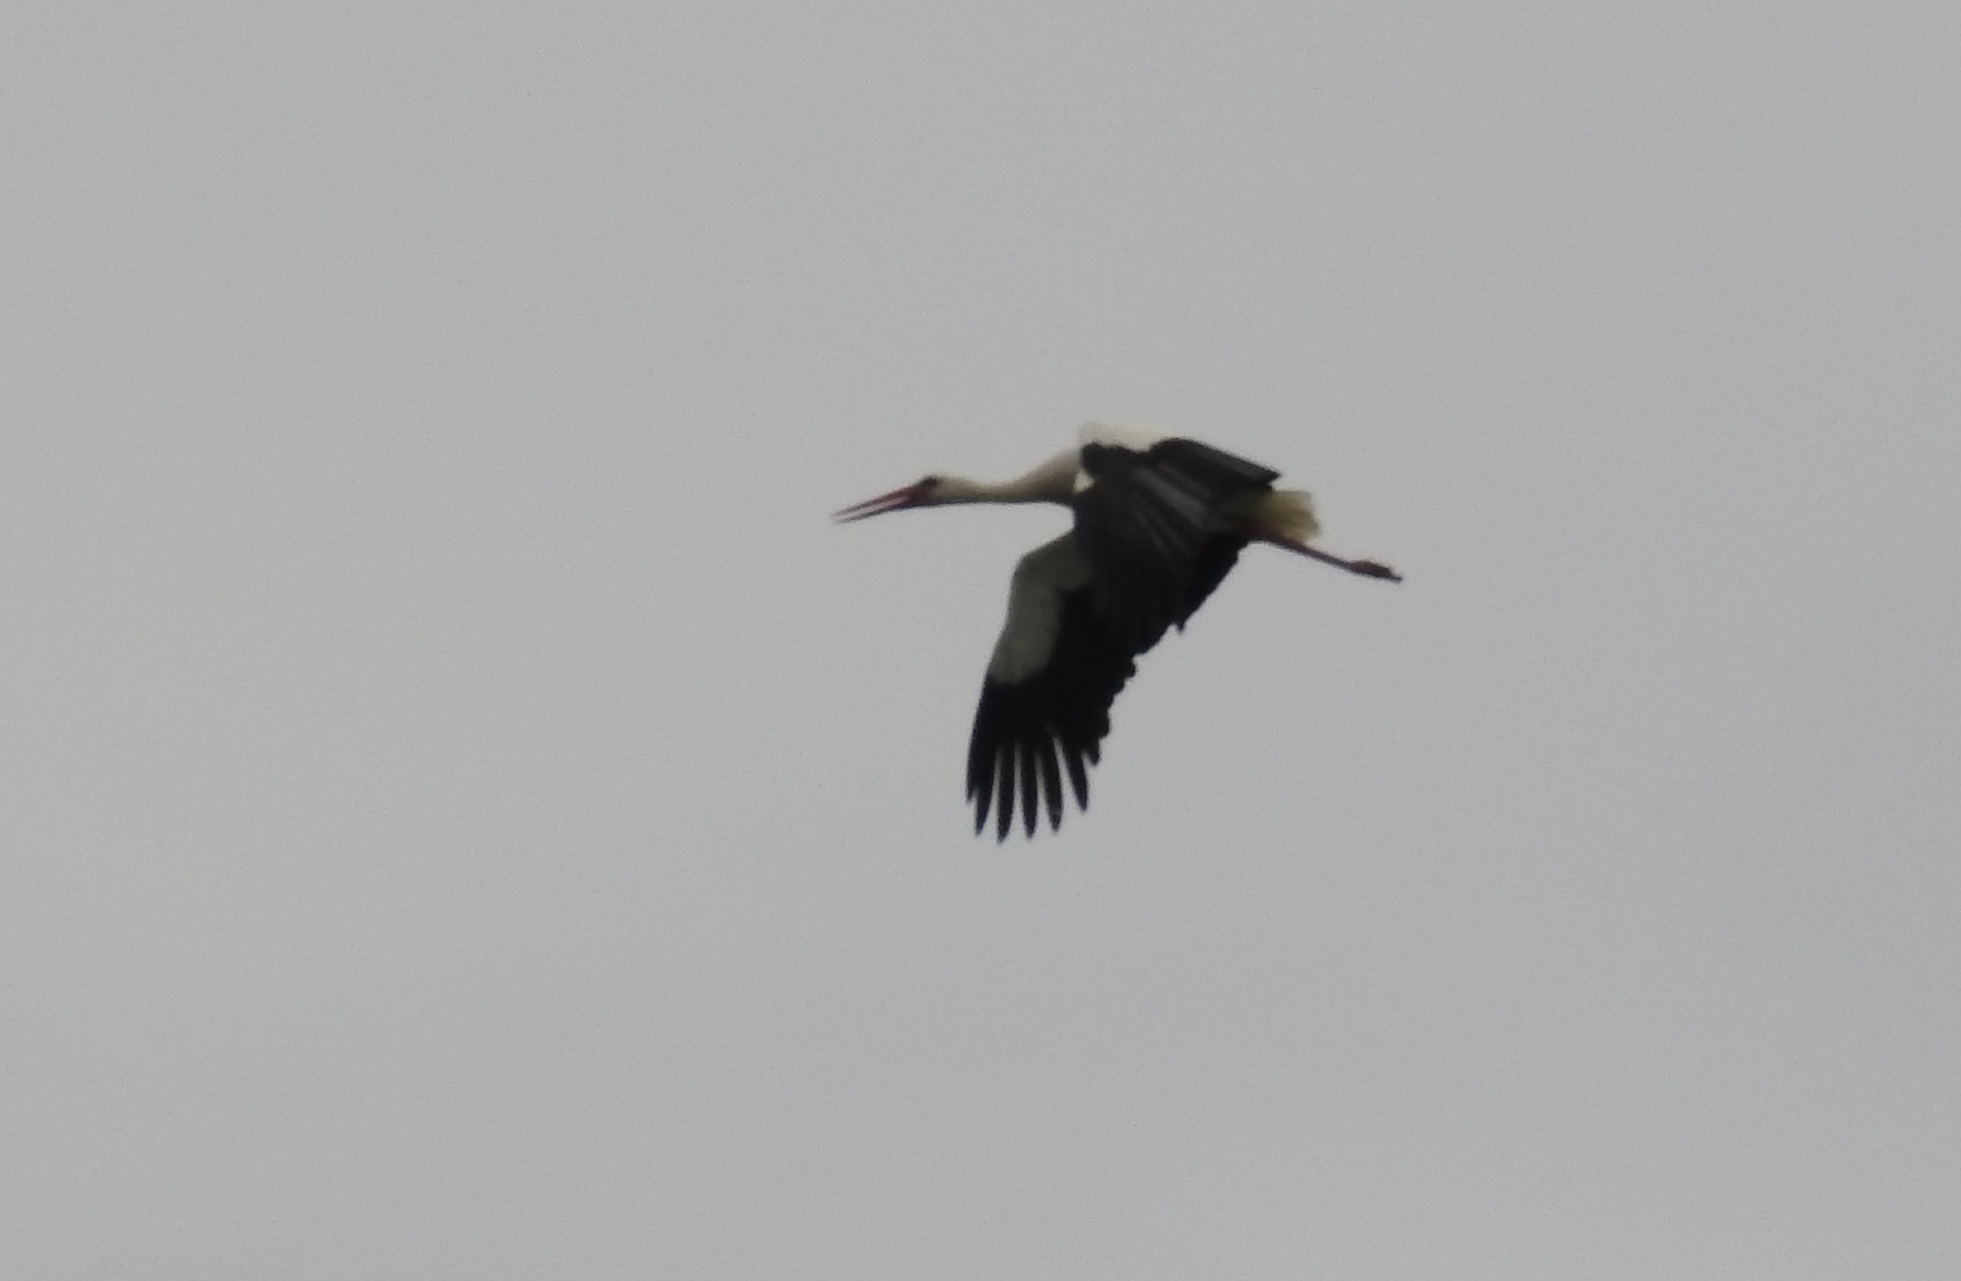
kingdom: Animalia
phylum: Chordata
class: Aves
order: Ciconiiformes
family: Ciconiidae
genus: Ciconia
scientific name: Ciconia ciconia
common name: White stork
